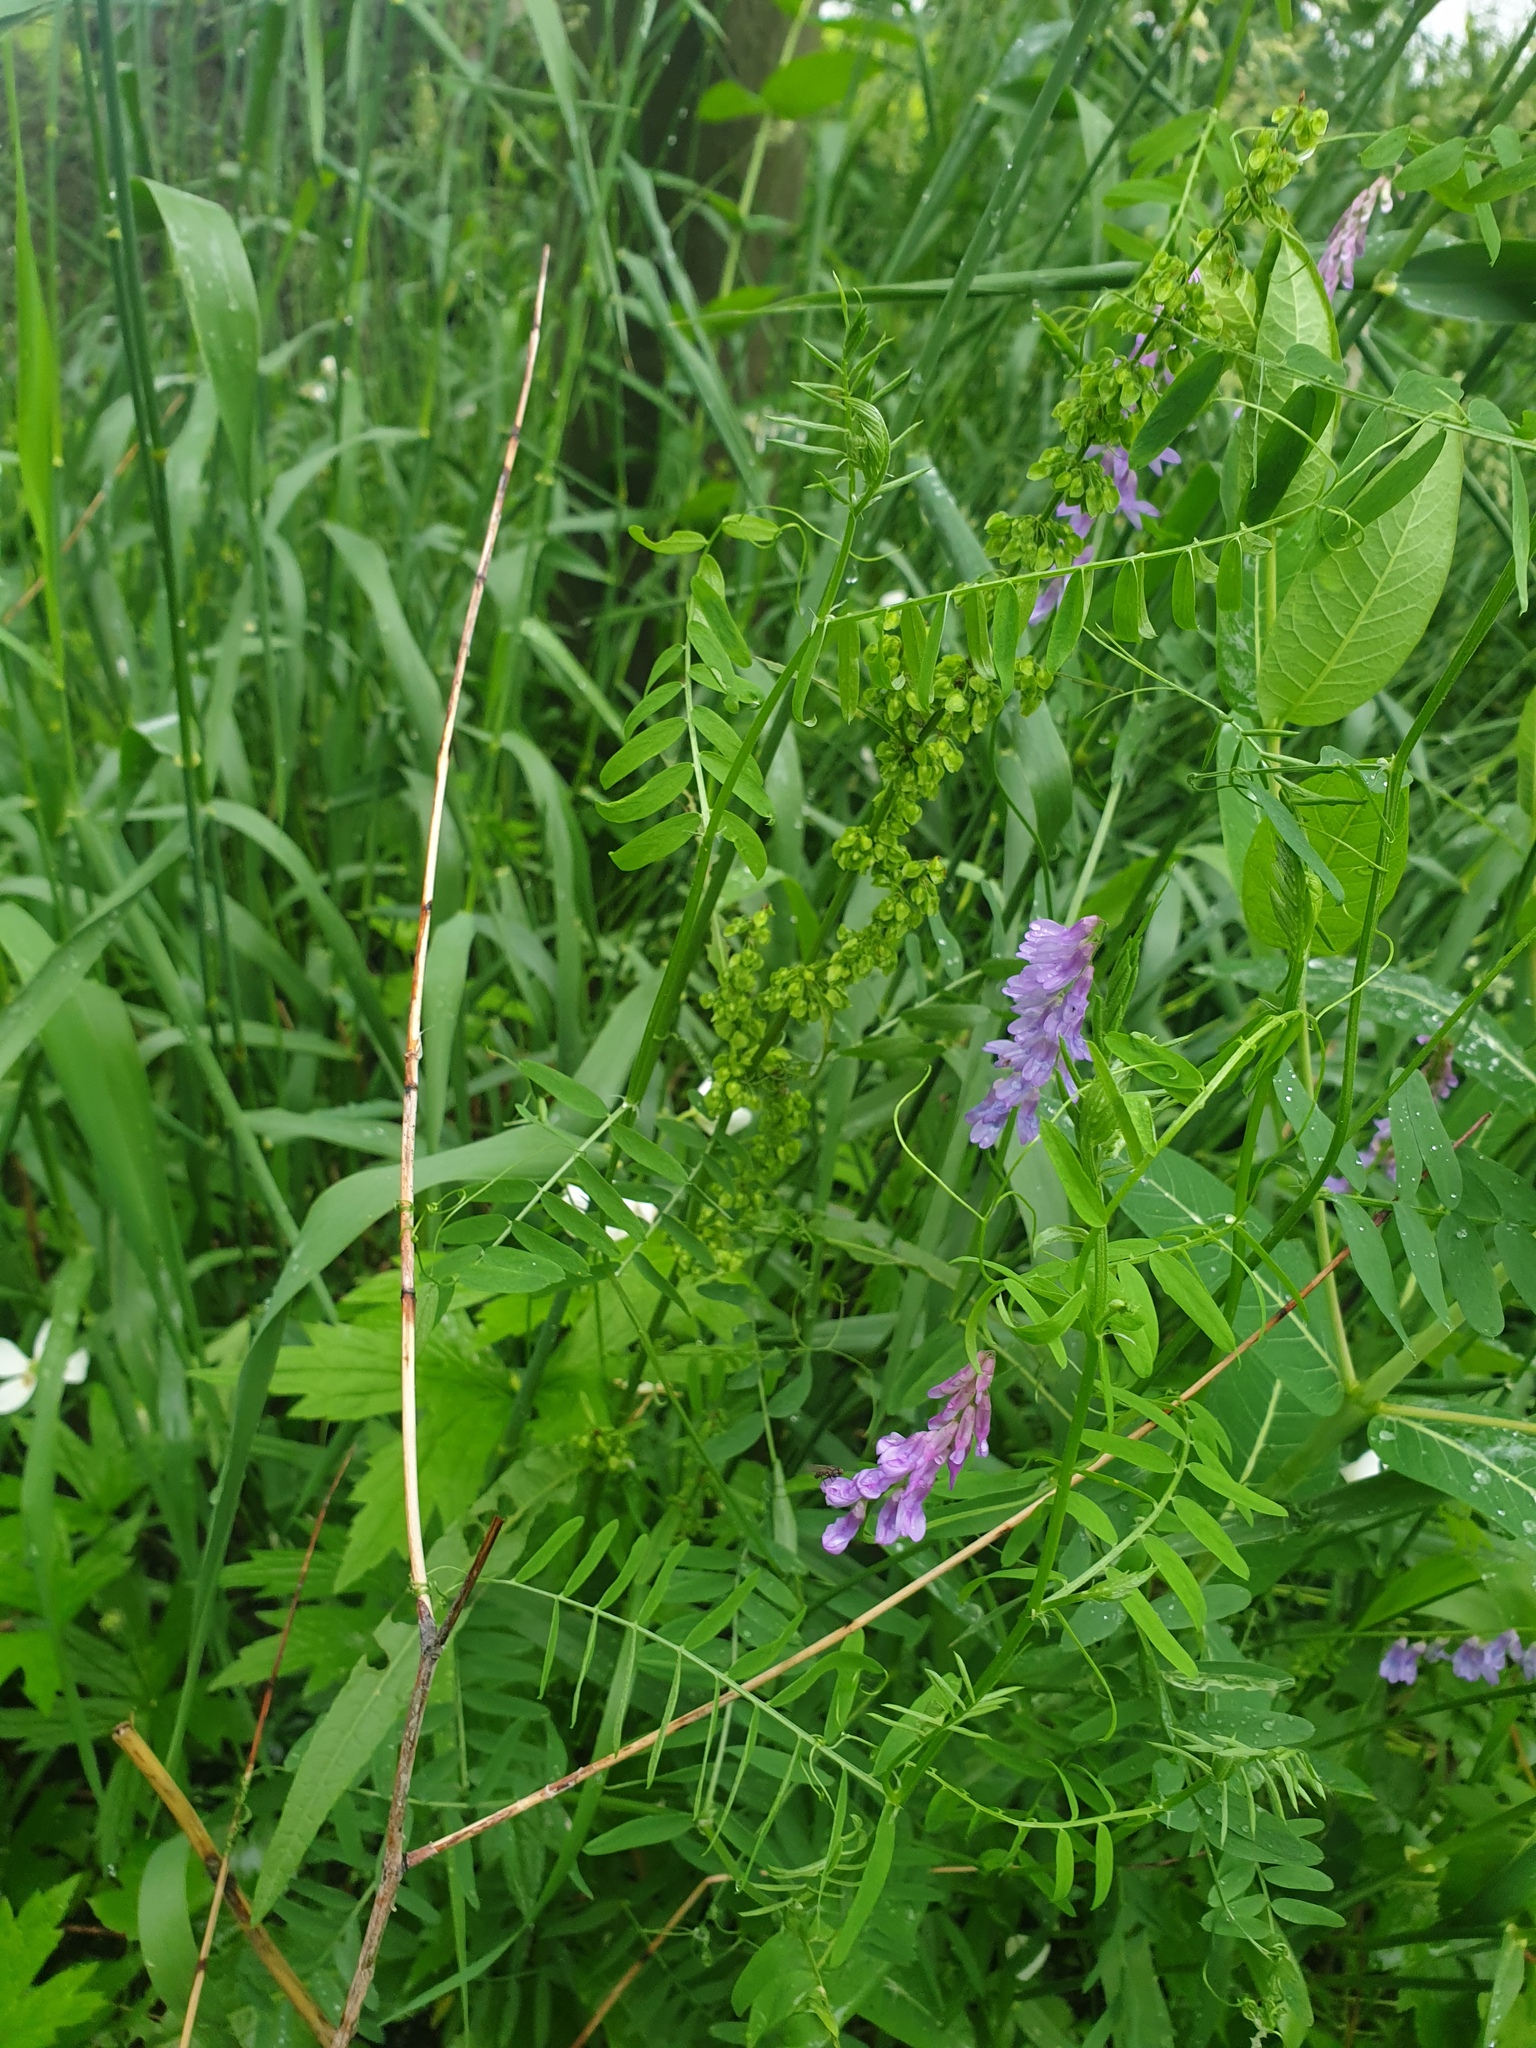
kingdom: Plantae
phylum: Tracheophyta
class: Magnoliopsida
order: Fabales
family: Fabaceae
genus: Vicia
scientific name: Vicia cracca
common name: Bird vetch
